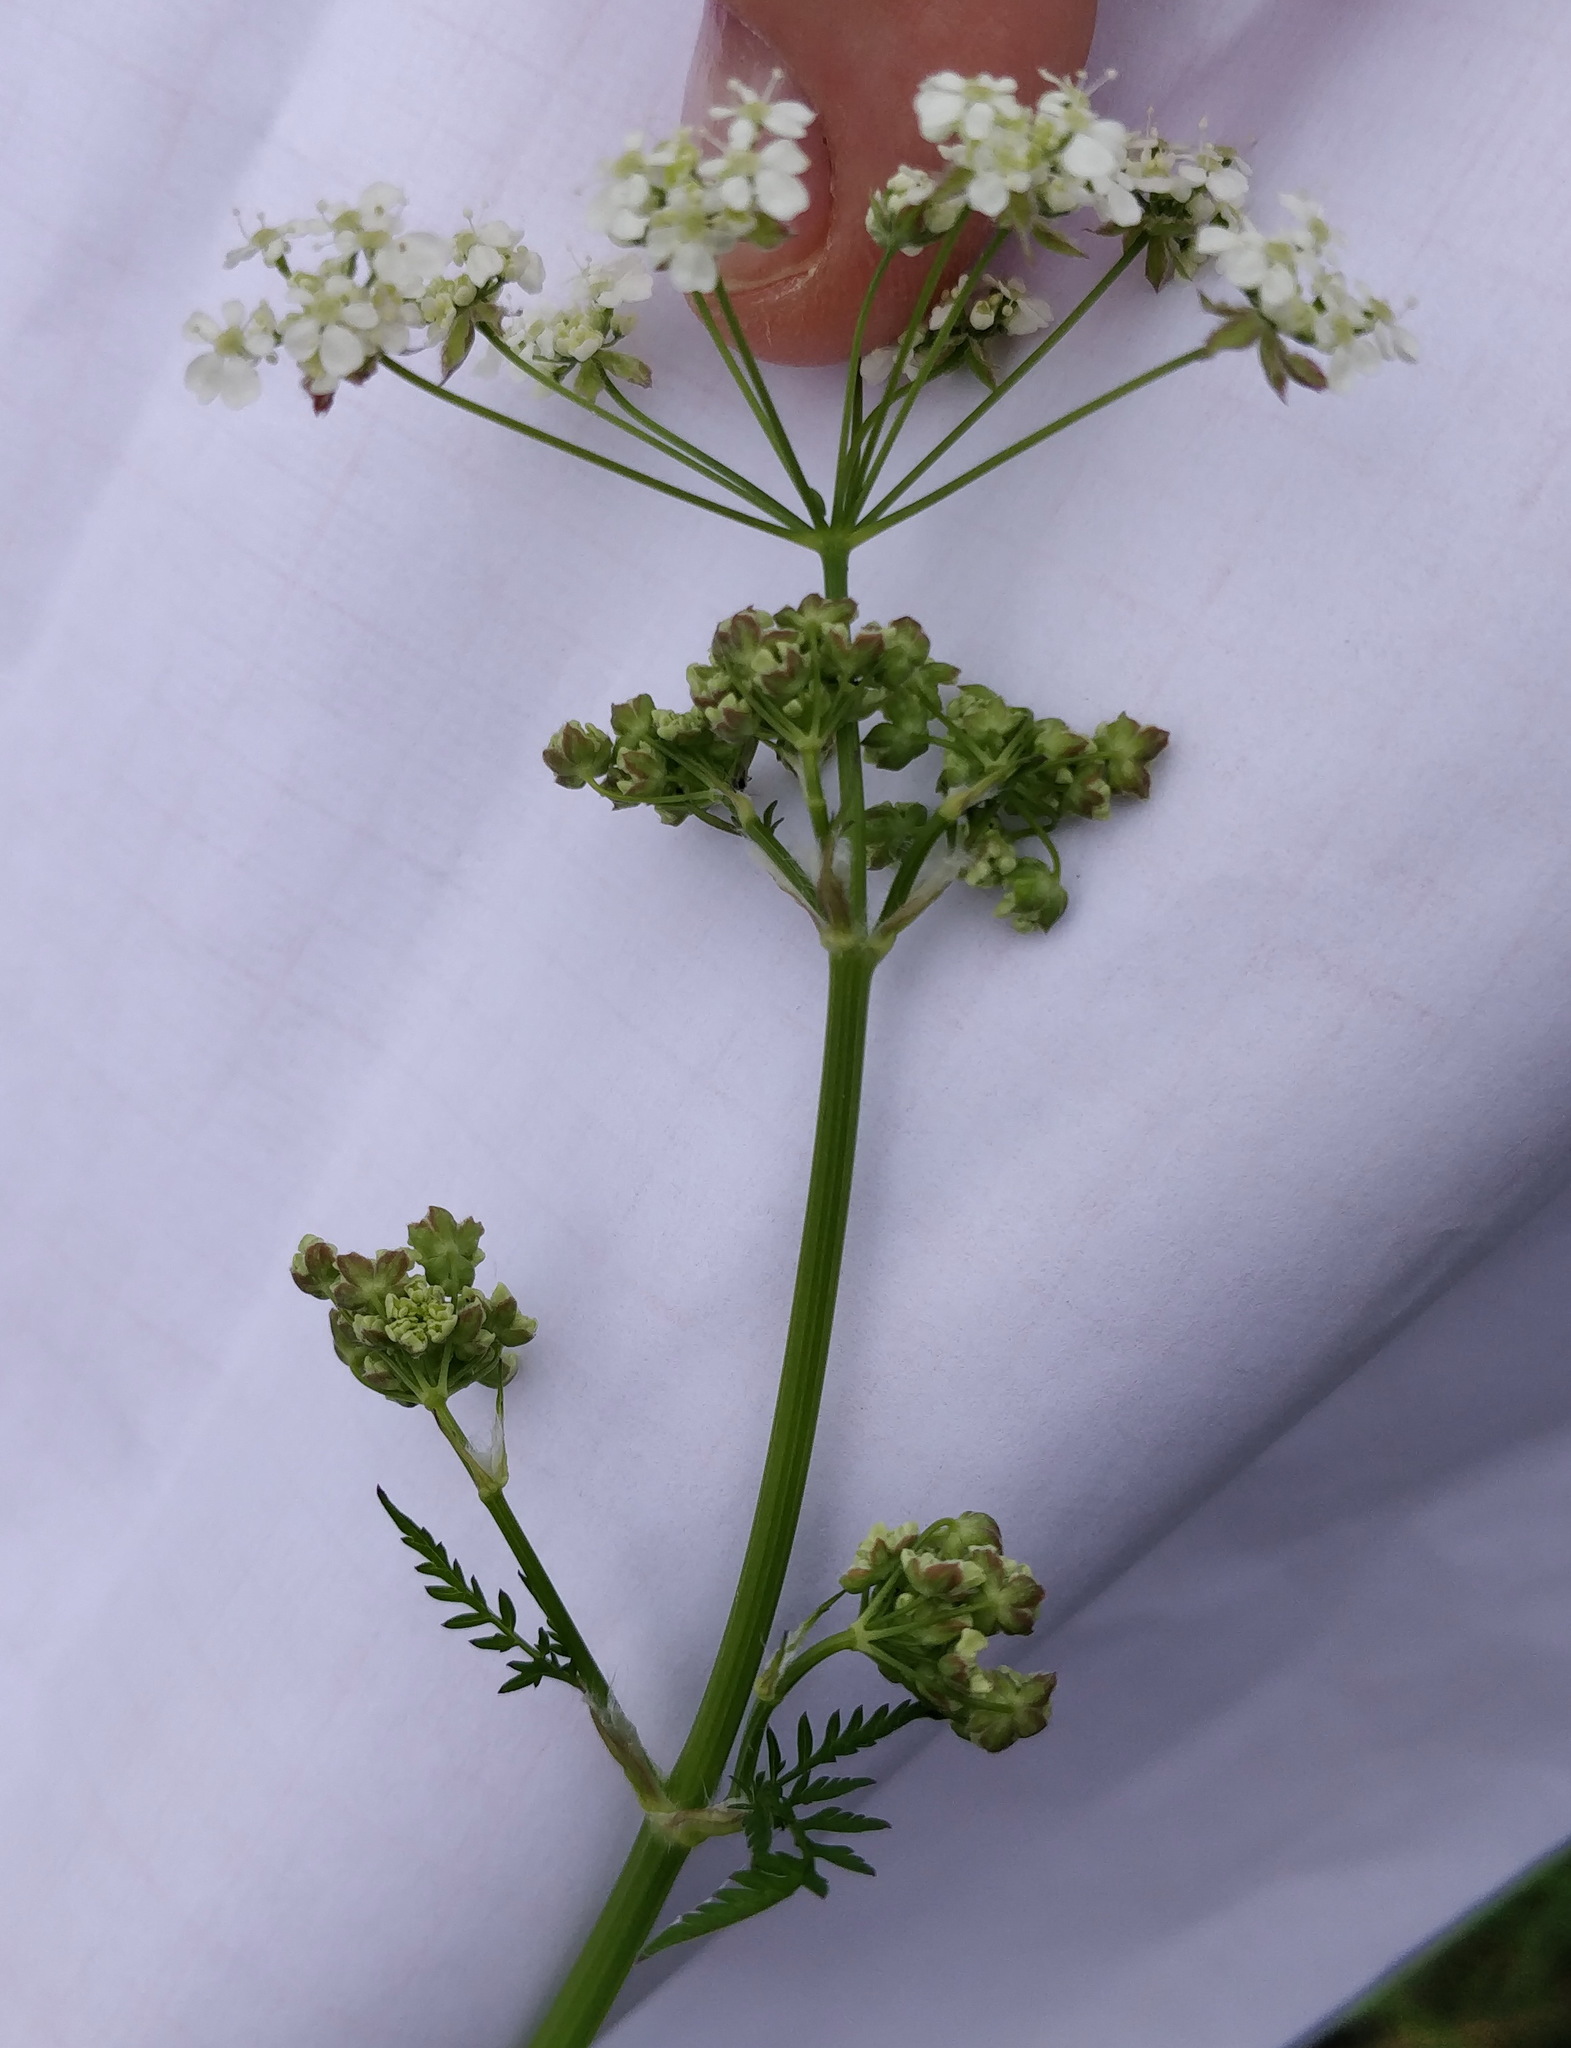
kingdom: Plantae
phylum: Tracheophyta
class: Magnoliopsida
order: Apiales
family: Apiaceae
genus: Anthriscus
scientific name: Anthriscus sylvestris
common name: Cow parsley
